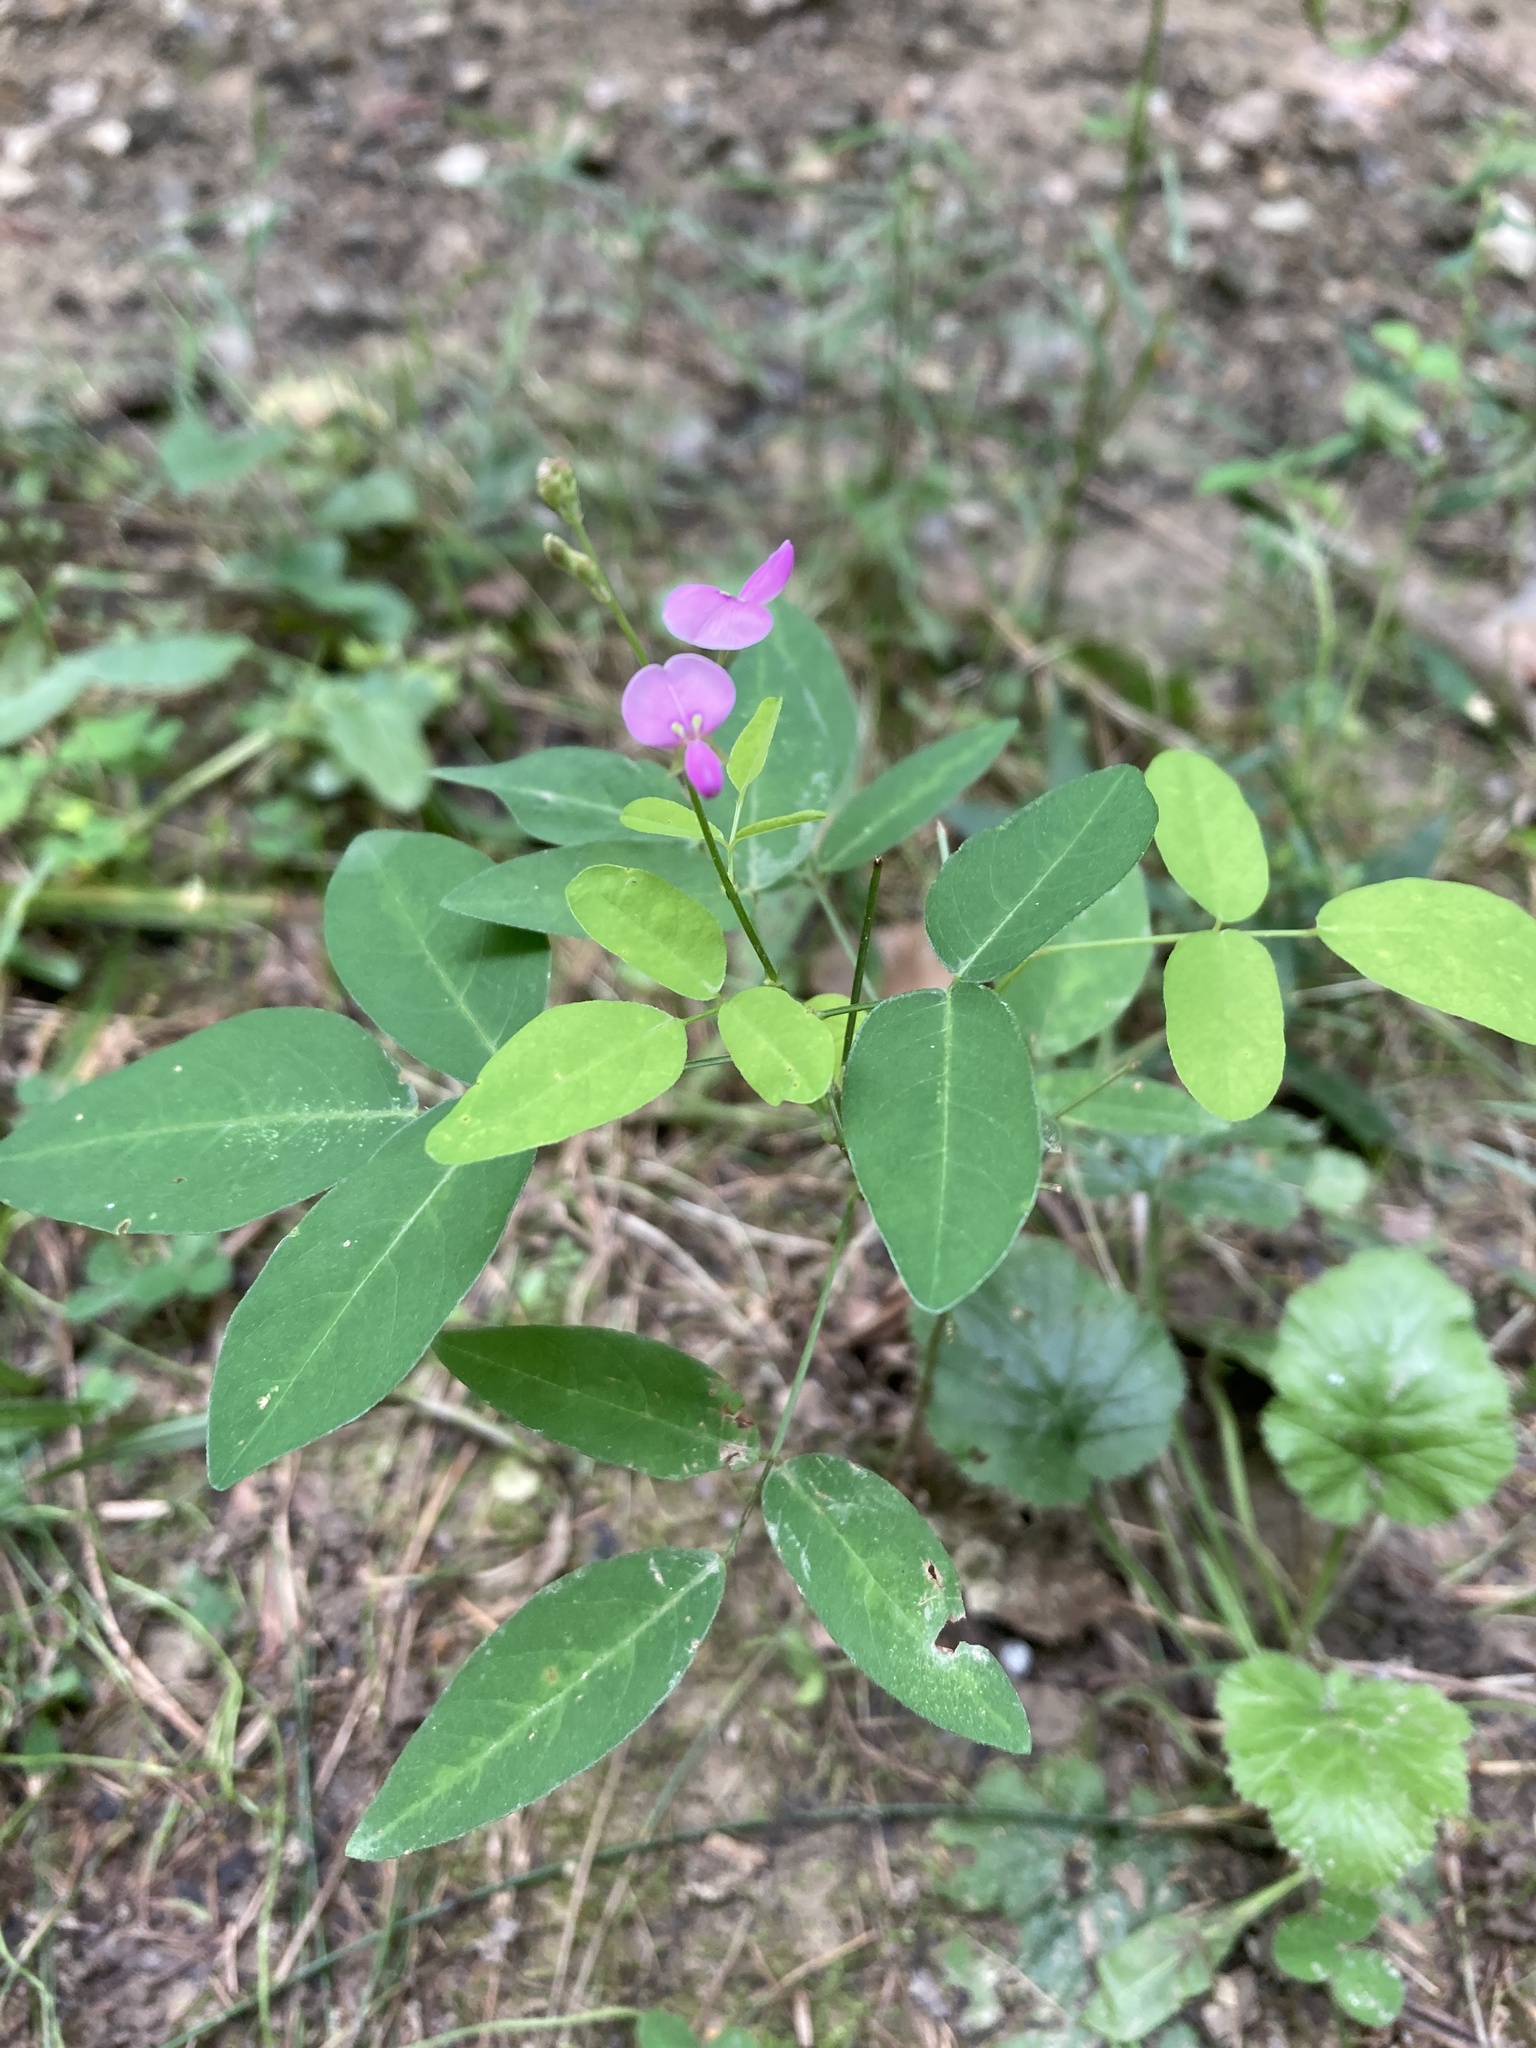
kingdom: Plantae
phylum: Tracheophyta
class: Magnoliopsida
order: Fabales
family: Fabaceae
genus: Desmodium
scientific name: Desmodium paniculatum
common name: Panicled tick-clover
